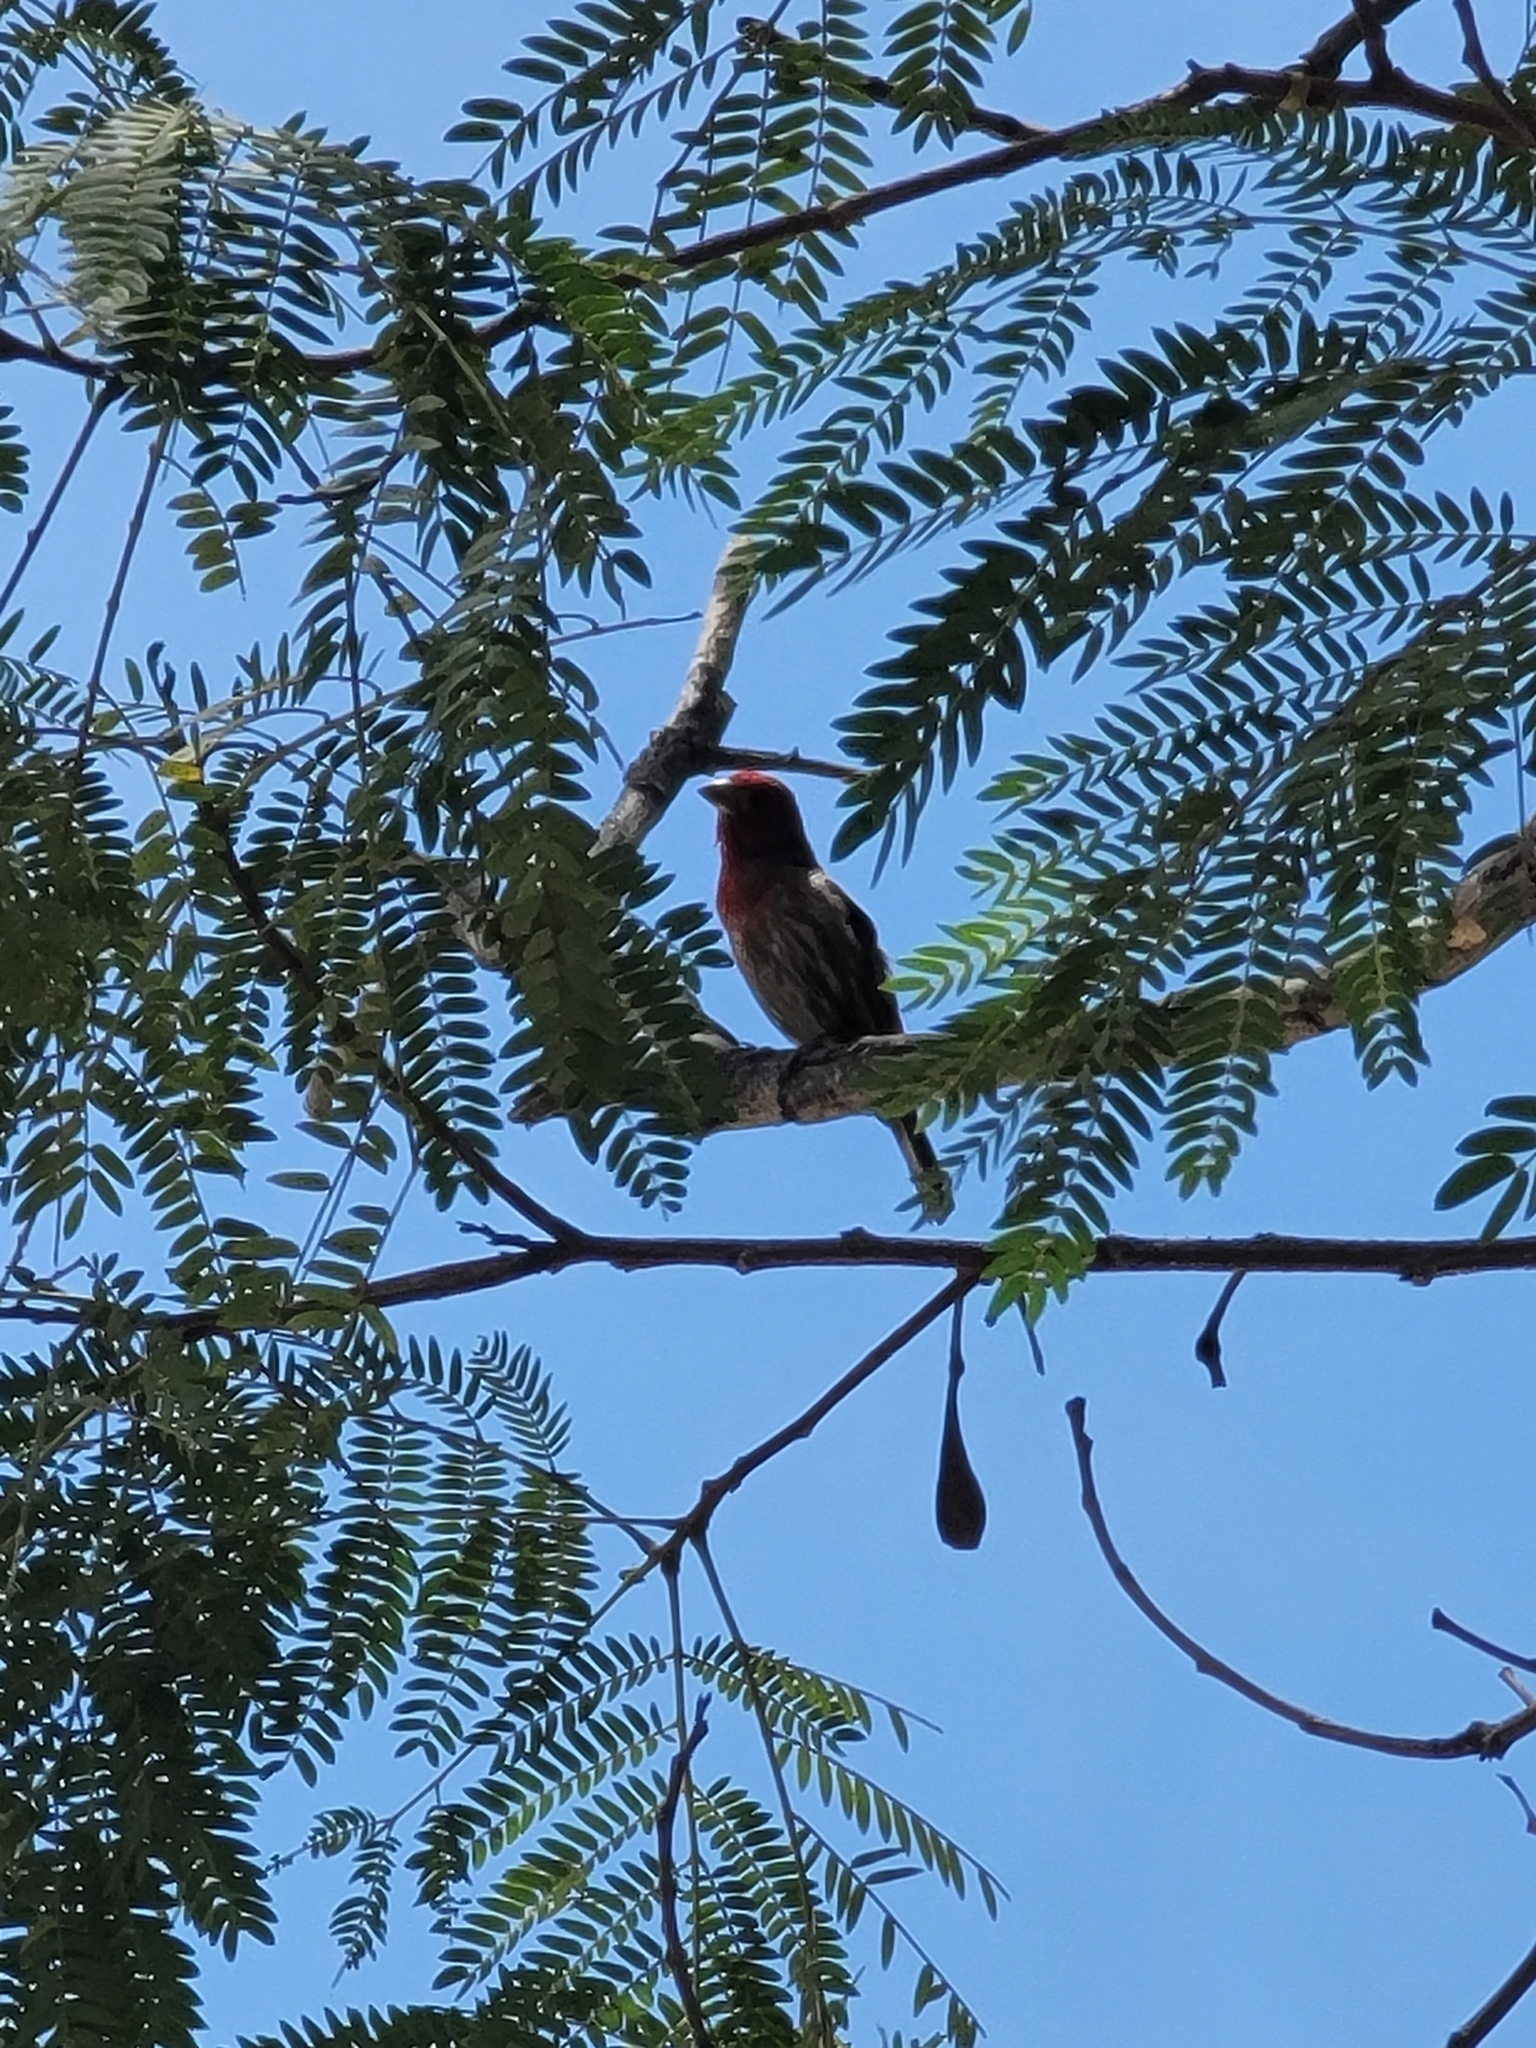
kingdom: Animalia
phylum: Chordata
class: Aves
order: Passeriformes
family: Fringillidae
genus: Haemorhous
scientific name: Haemorhous mexicanus
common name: House finch
